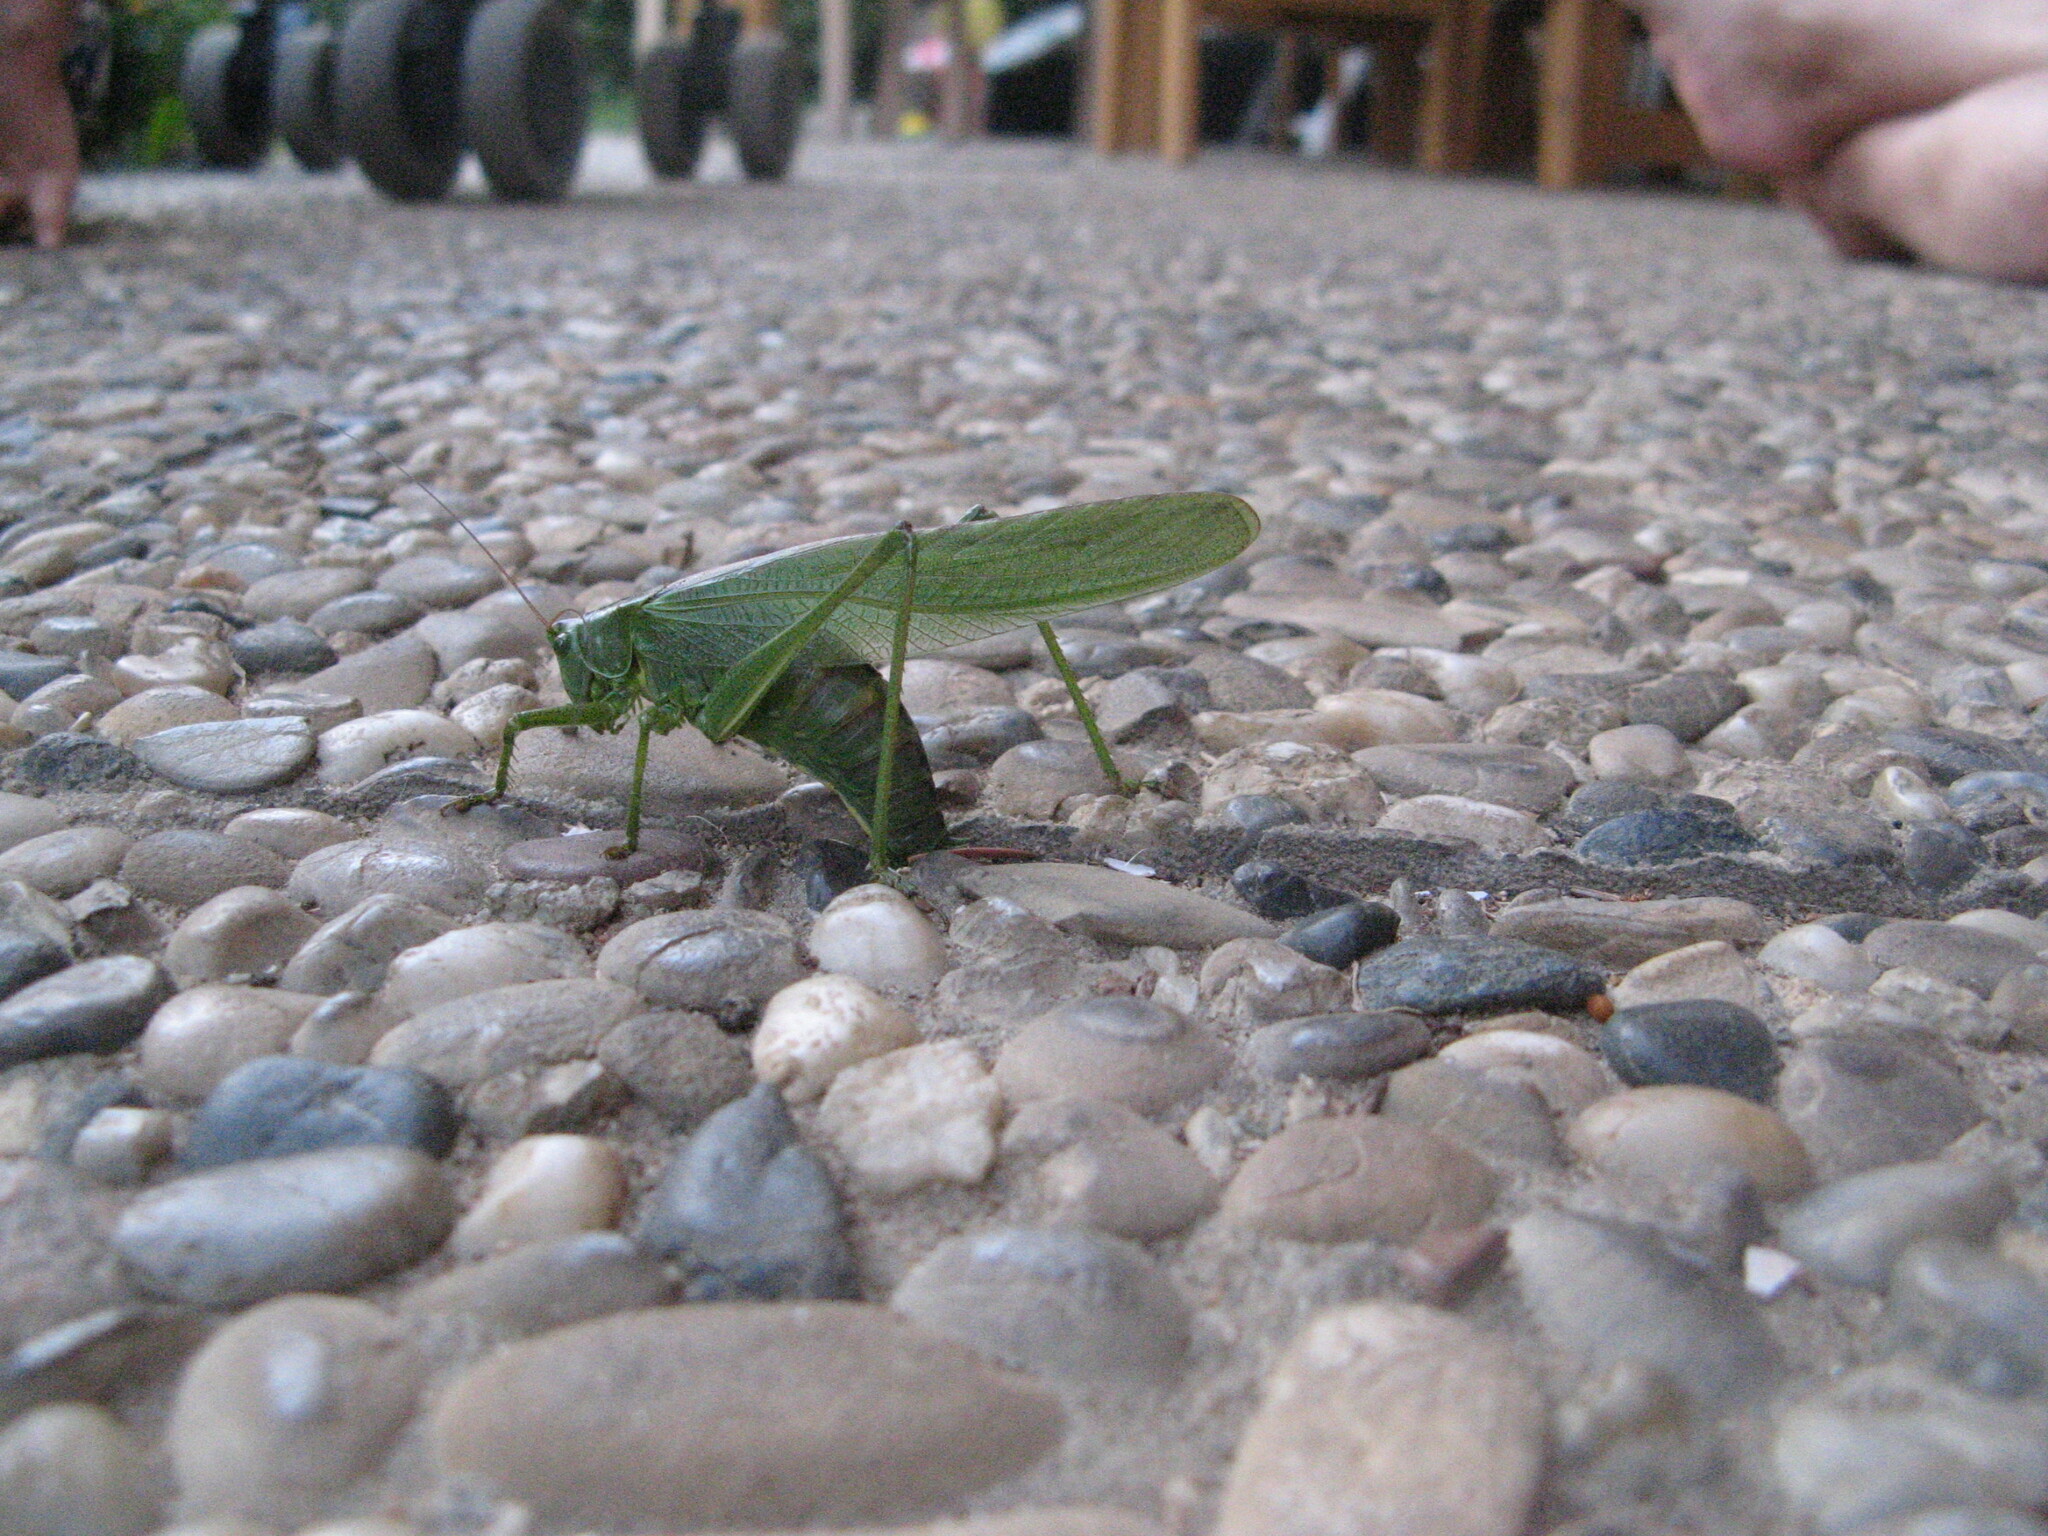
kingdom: Animalia
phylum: Arthropoda
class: Insecta
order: Orthoptera
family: Tettigoniidae
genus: Tettigonia
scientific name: Tettigonia viridissima
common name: Great green bush-cricket
